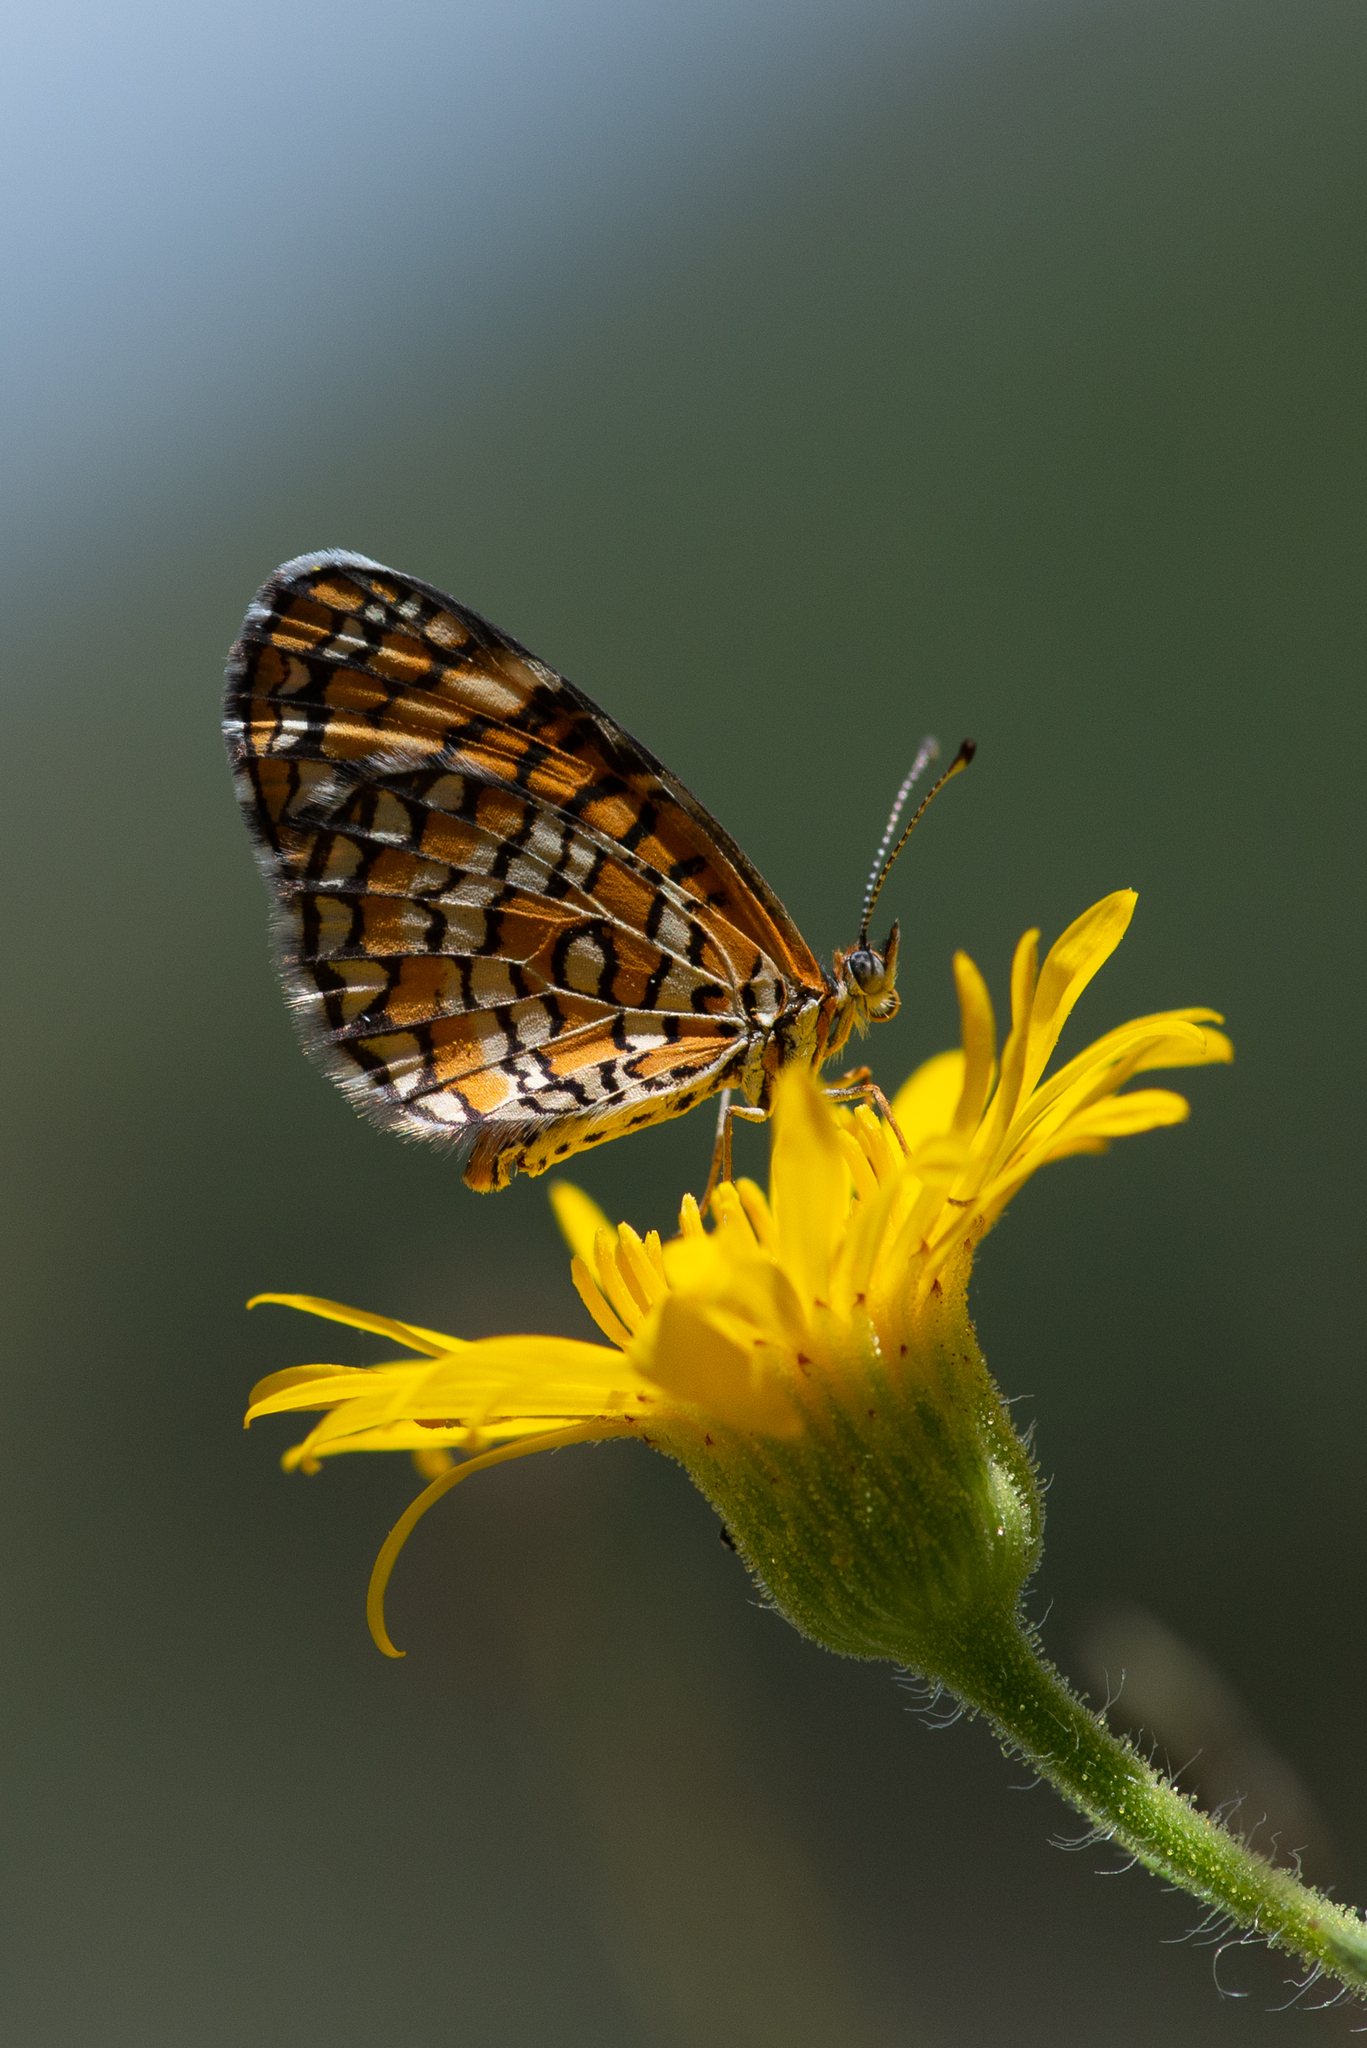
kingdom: Animalia
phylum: Arthropoda
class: Insecta
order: Lepidoptera
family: Nymphalidae
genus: Dymasia
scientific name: Dymasia dymas
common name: Tiny checkerspot
